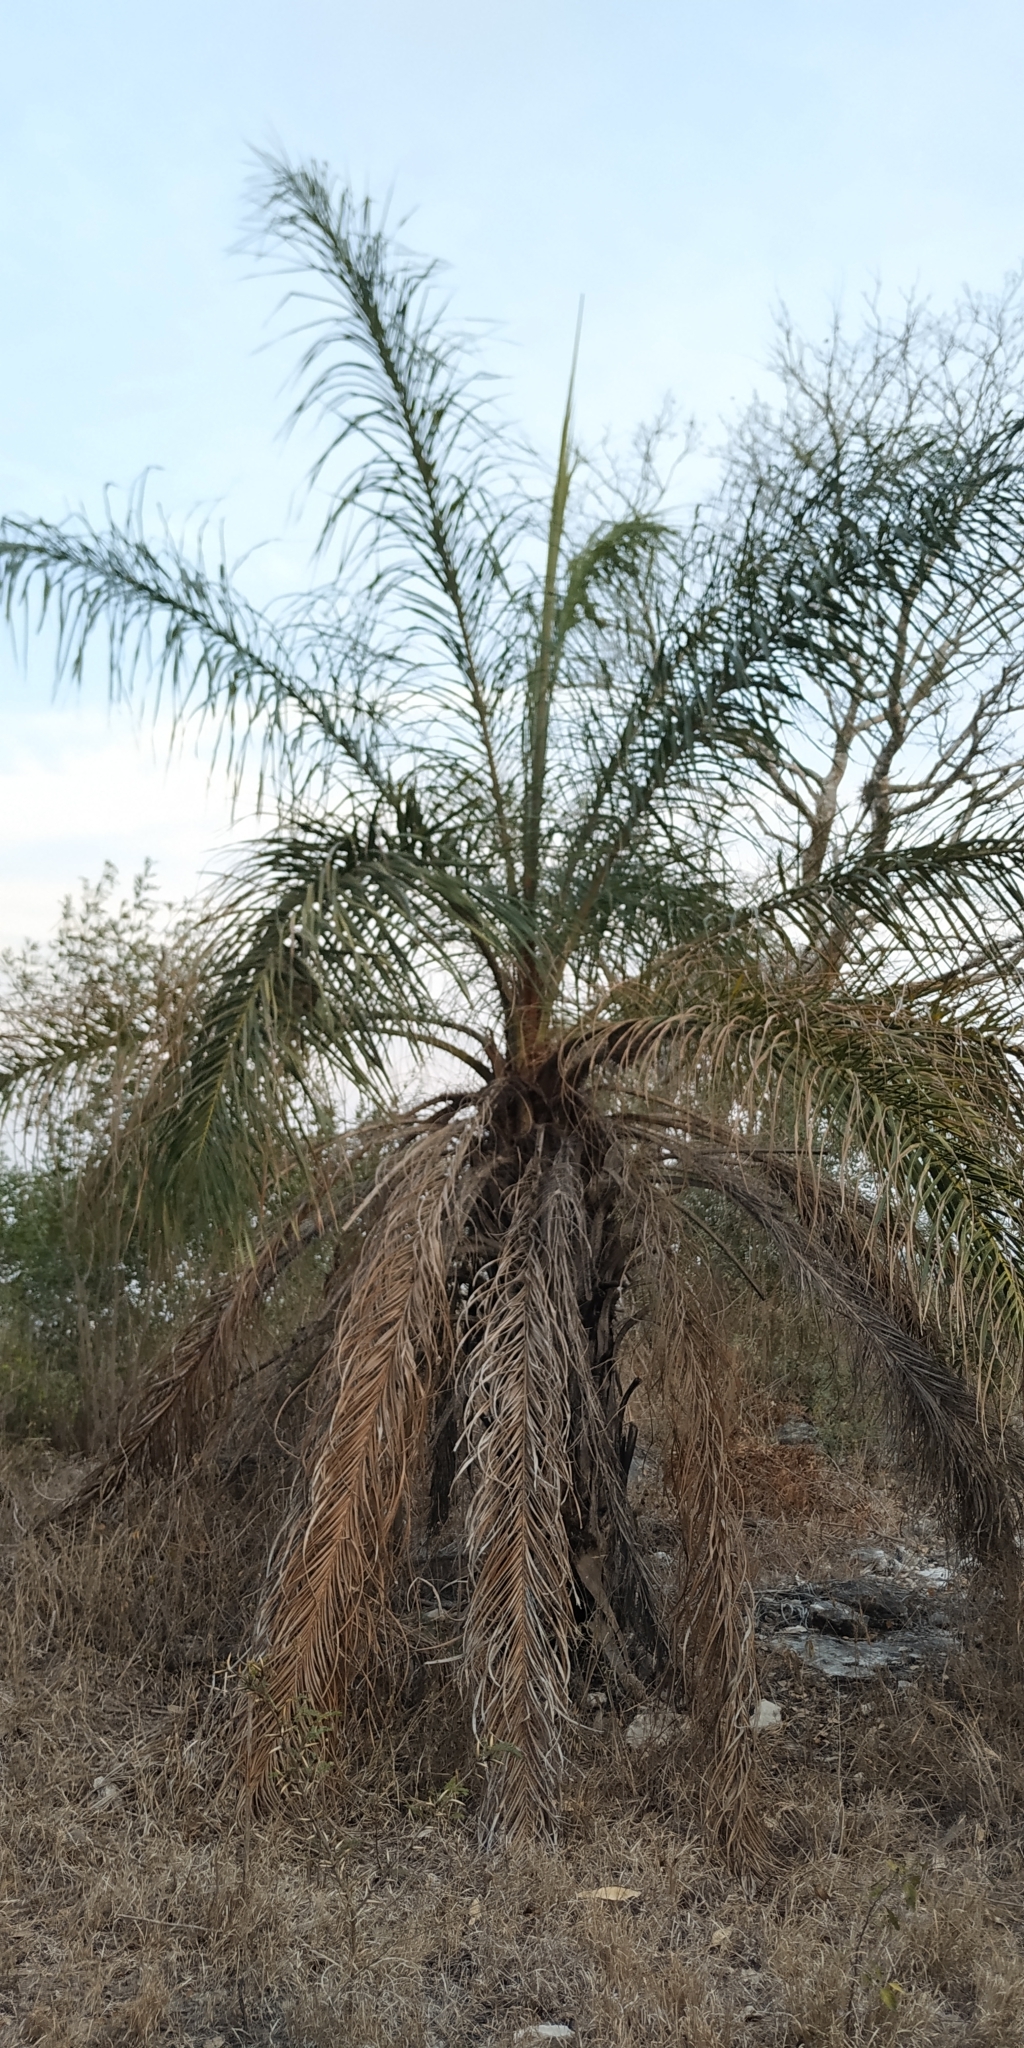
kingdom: Plantae
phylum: Tracheophyta
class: Liliopsida
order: Arecales
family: Arecaceae
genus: Acrocomia
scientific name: Acrocomia aculeata
